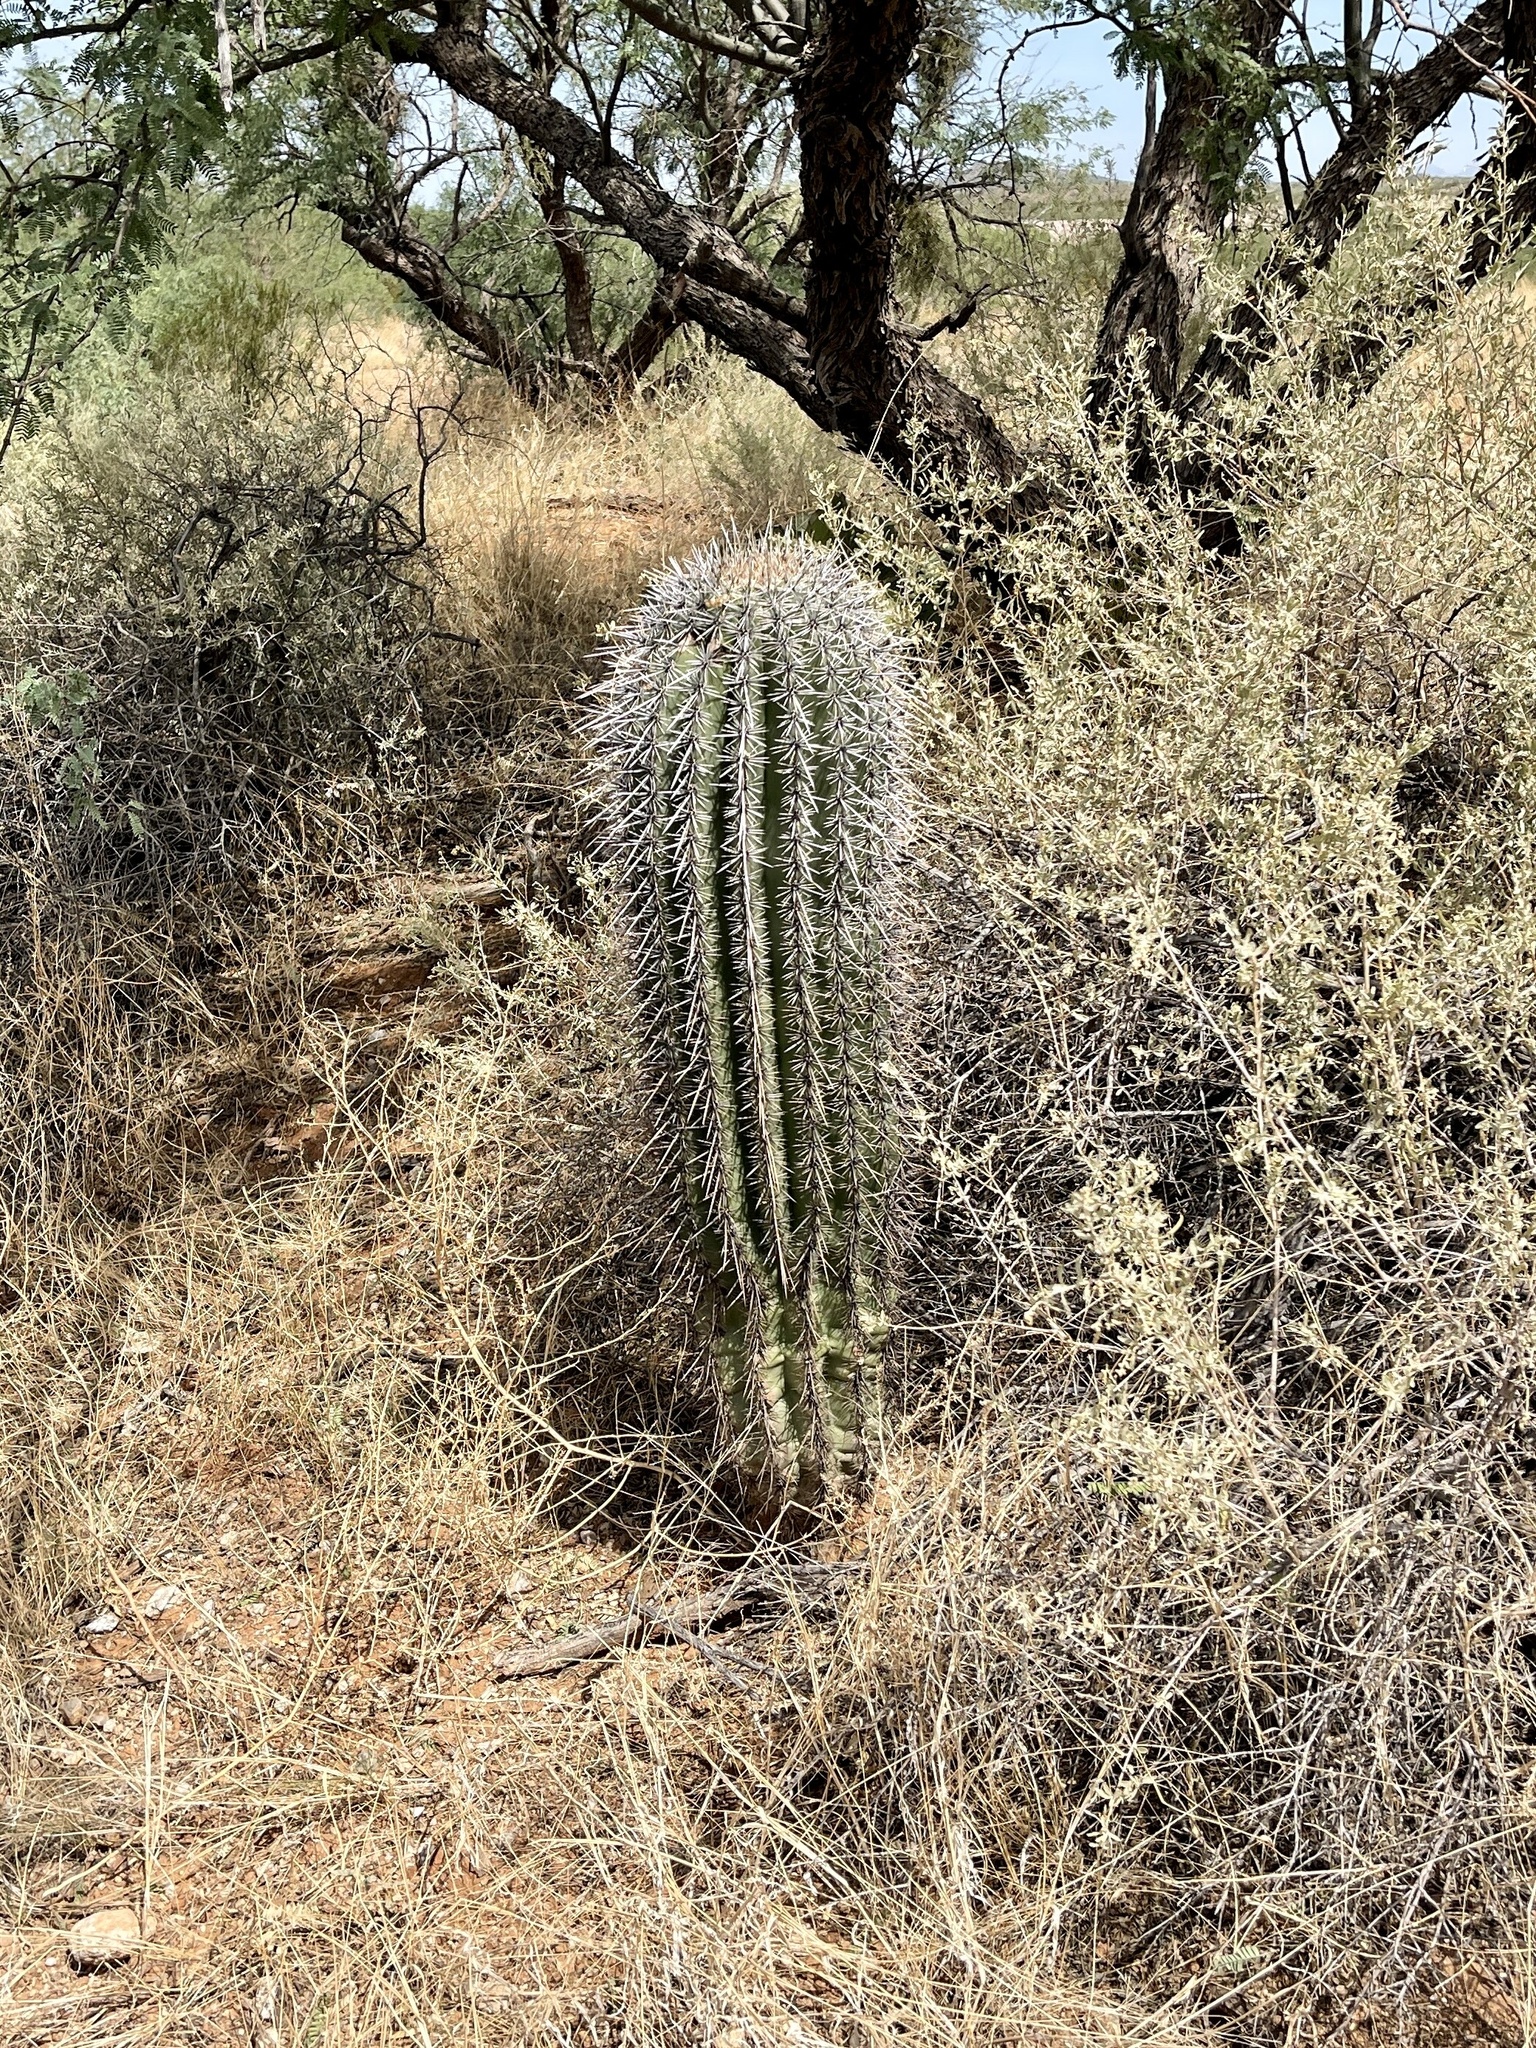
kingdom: Plantae
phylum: Tracheophyta
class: Magnoliopsida
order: Caryophyllales
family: Cactaceae
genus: Carnegiea
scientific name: Carnegiea gigantea
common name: Saguaro
